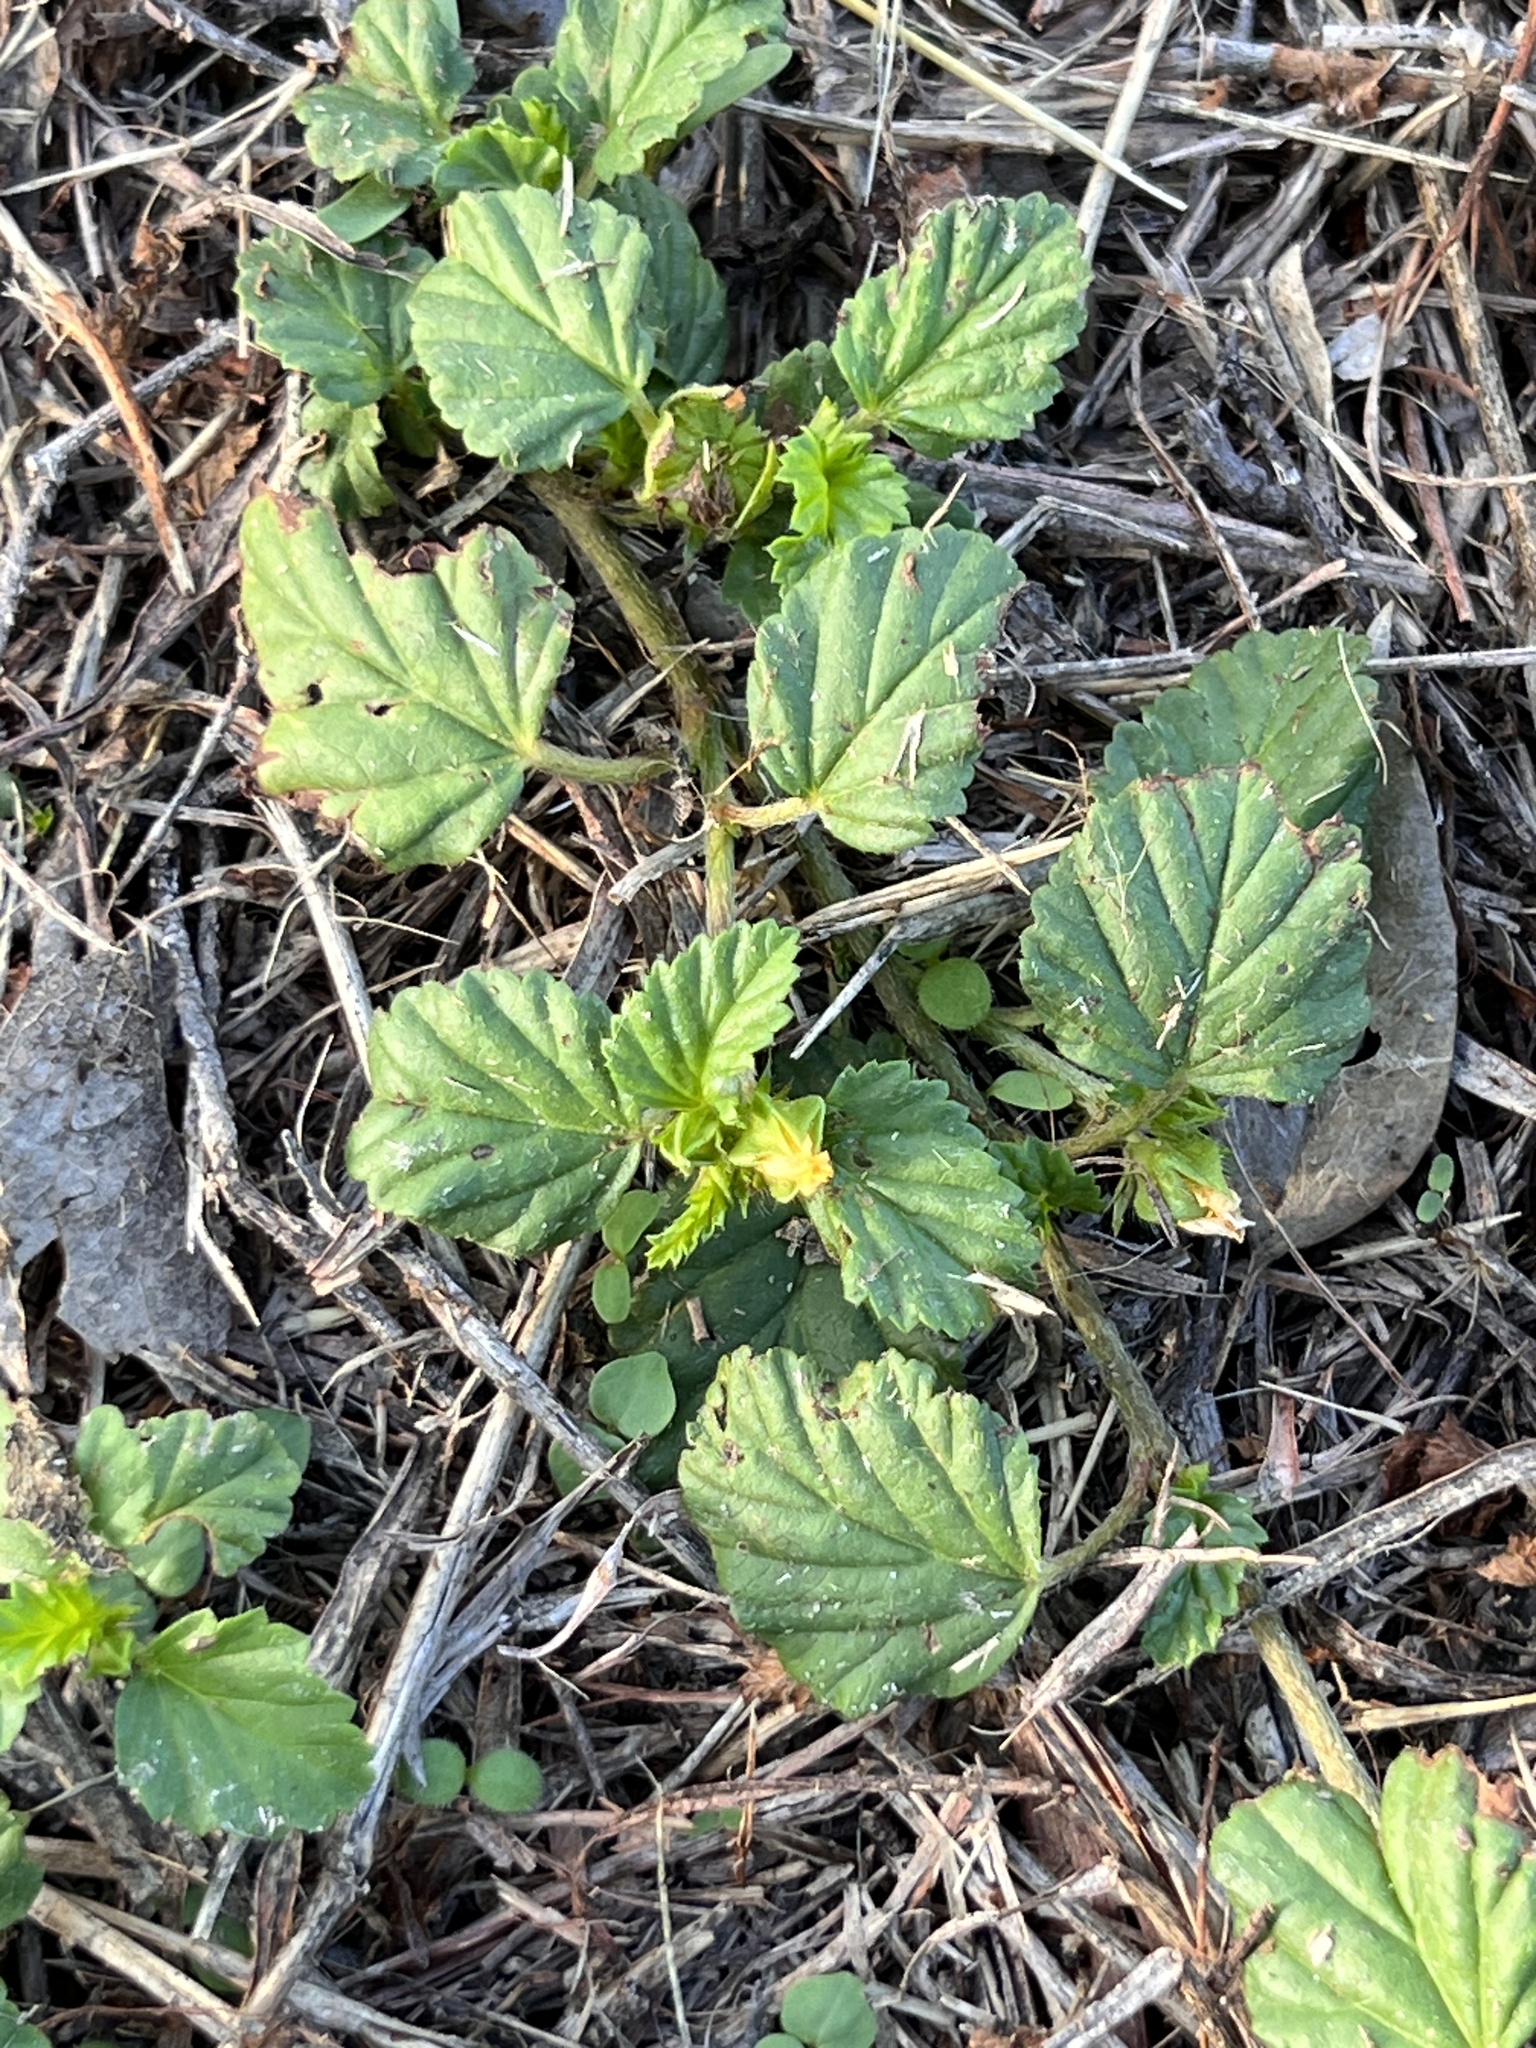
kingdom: Plantae
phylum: Tracheophyta
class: Magnoliopsida
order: Malvales
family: Malvaceae
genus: Malvastrum
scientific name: Malvastrum coromandelianum
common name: Threelobe false mallow
